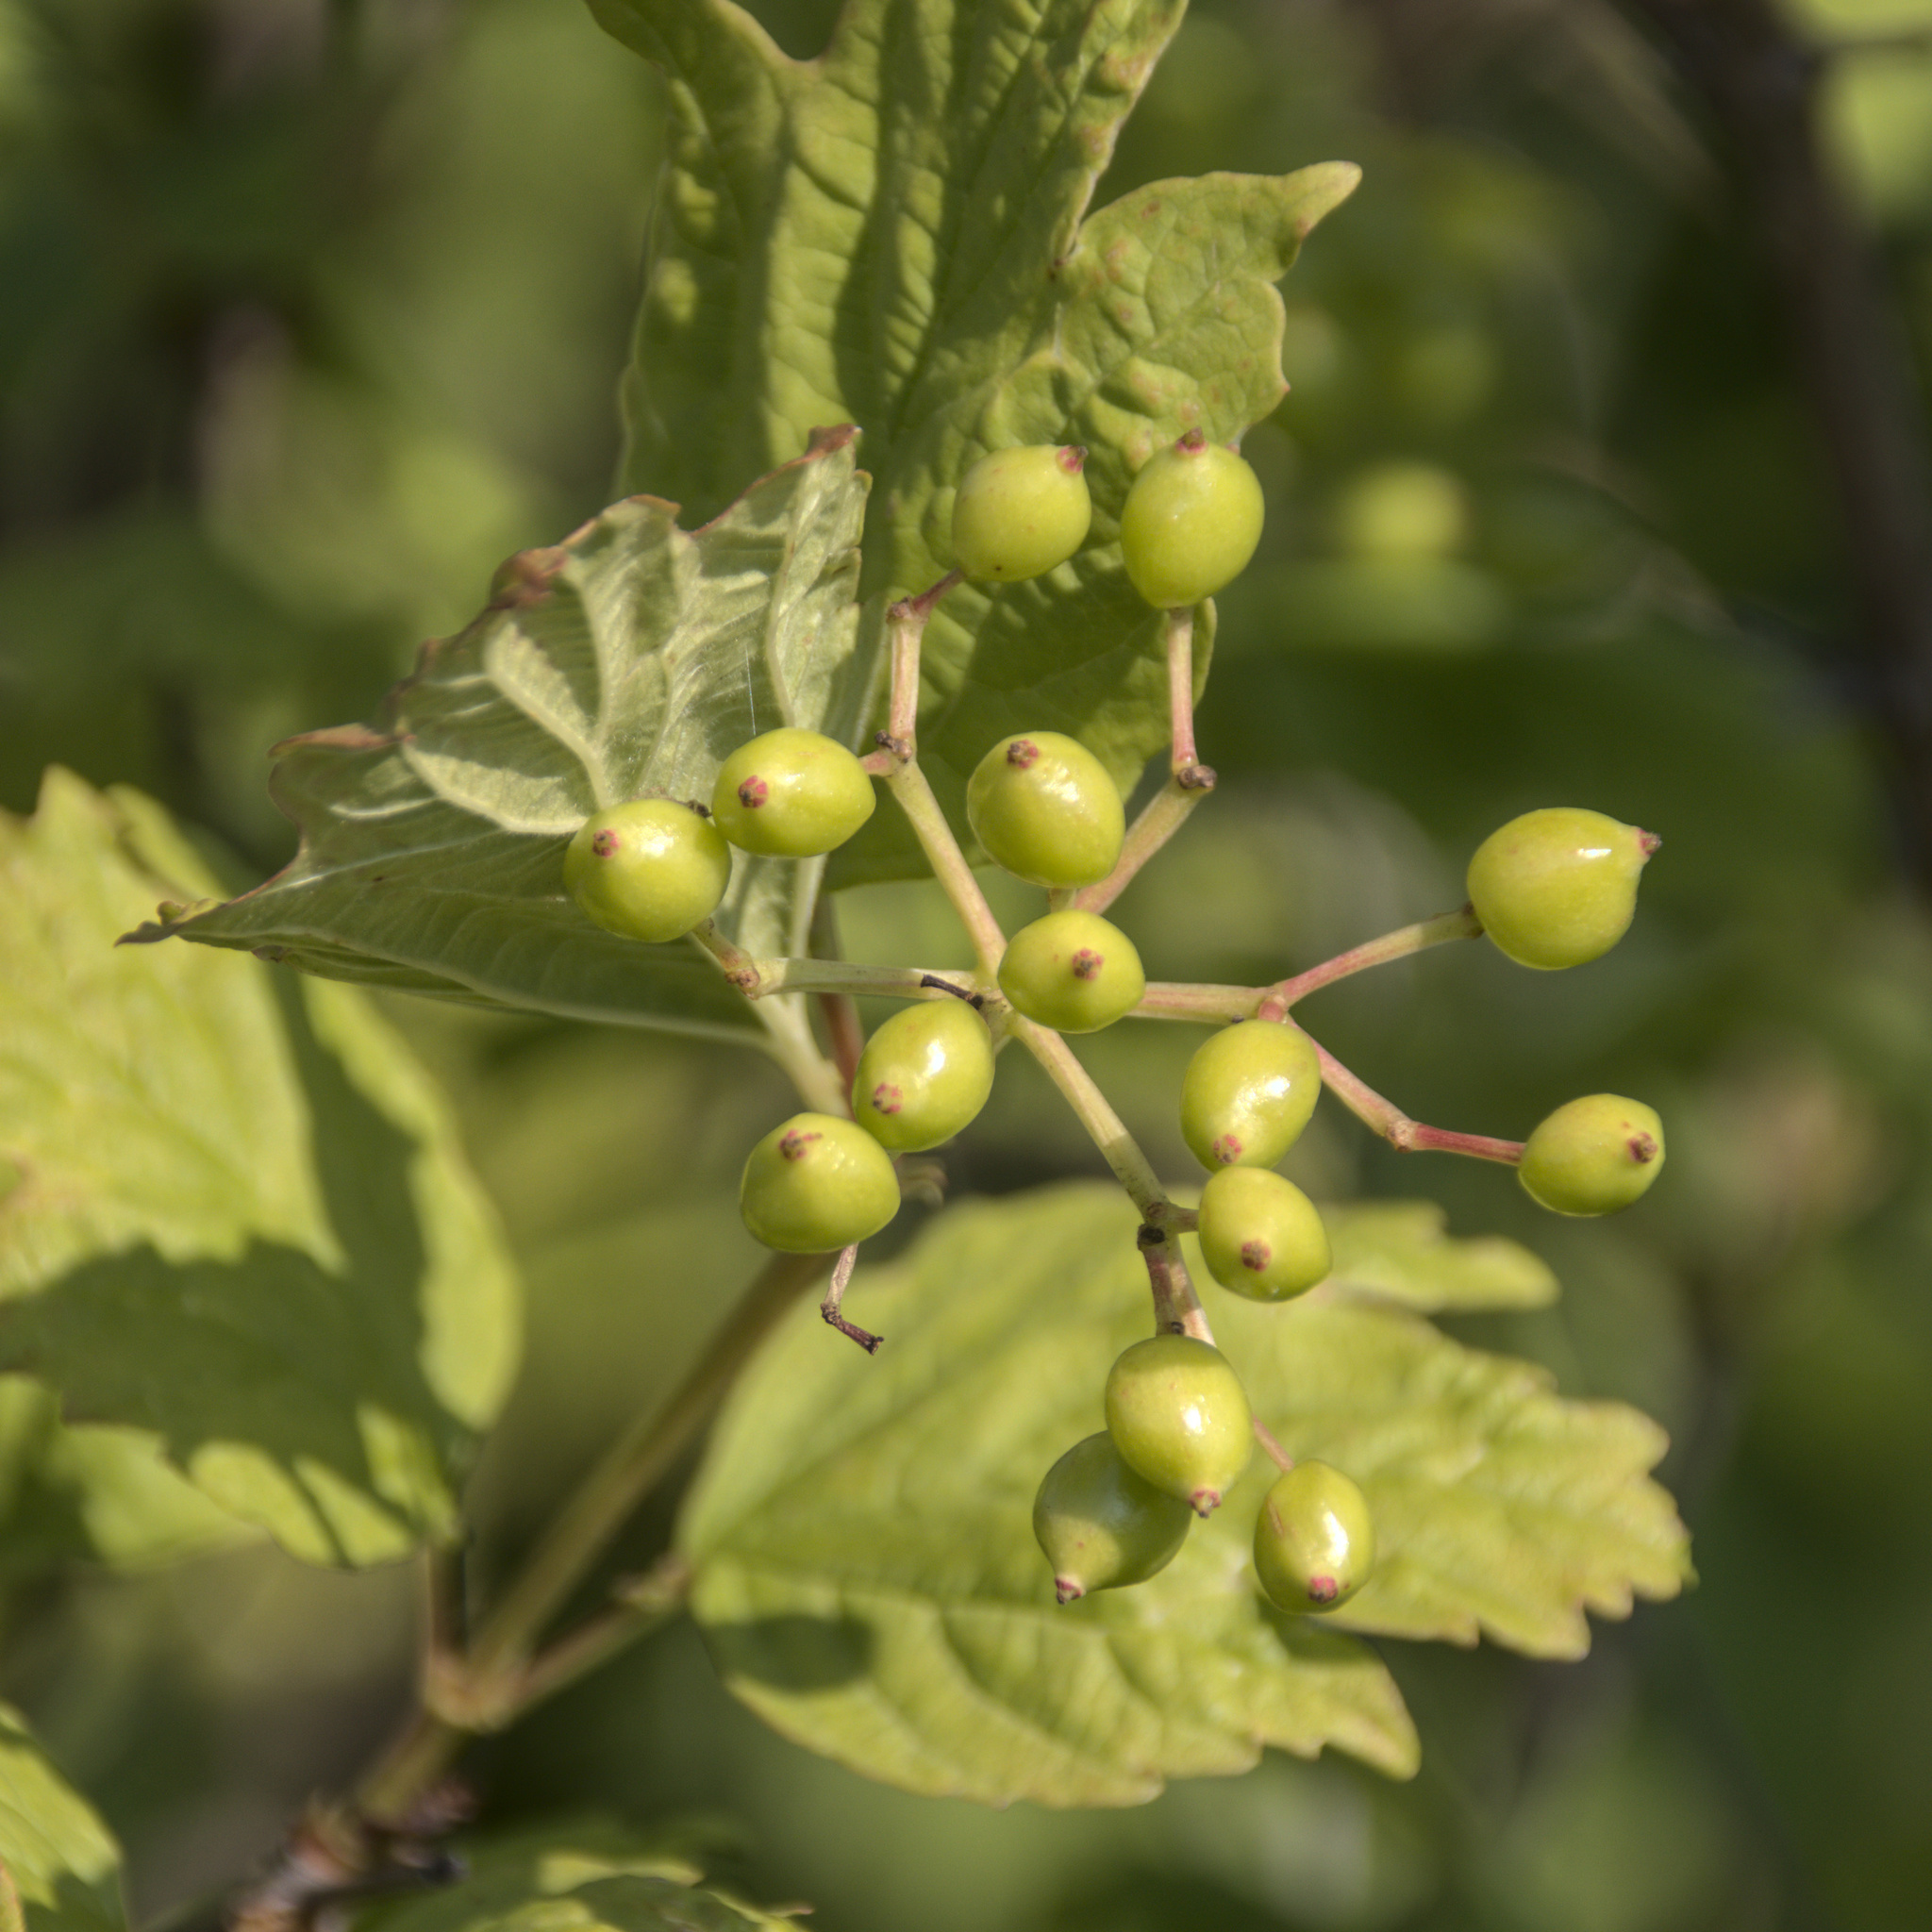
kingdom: Plantae
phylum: Tracheophyta
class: Magnoliopsida
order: Dipsacales
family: Viburnaceae
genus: Viburnum
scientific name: Viburnum opulus
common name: Guelder-rose
